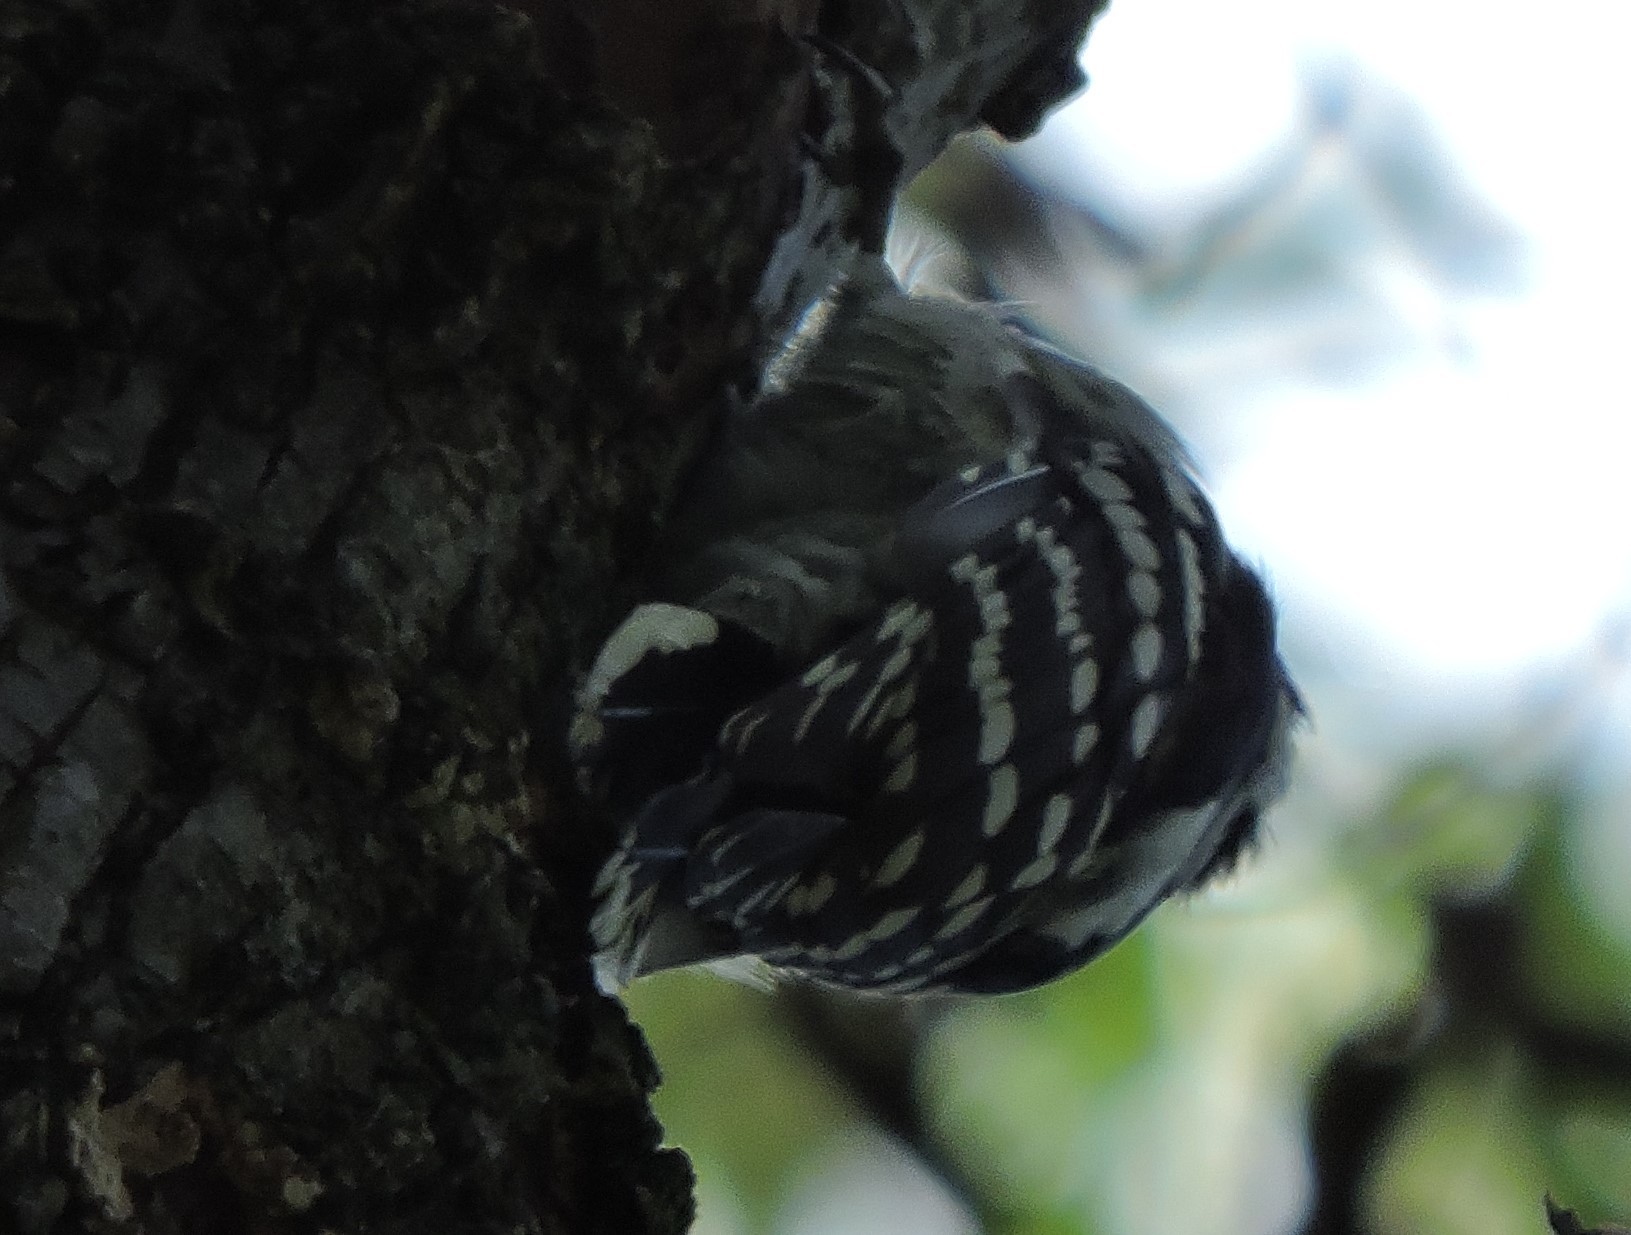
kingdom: Animalia
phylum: Chordata
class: Aves
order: Piciformes
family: Picidae
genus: Dryobates
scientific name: Dryobates pubescens
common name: Downy woodpecker
